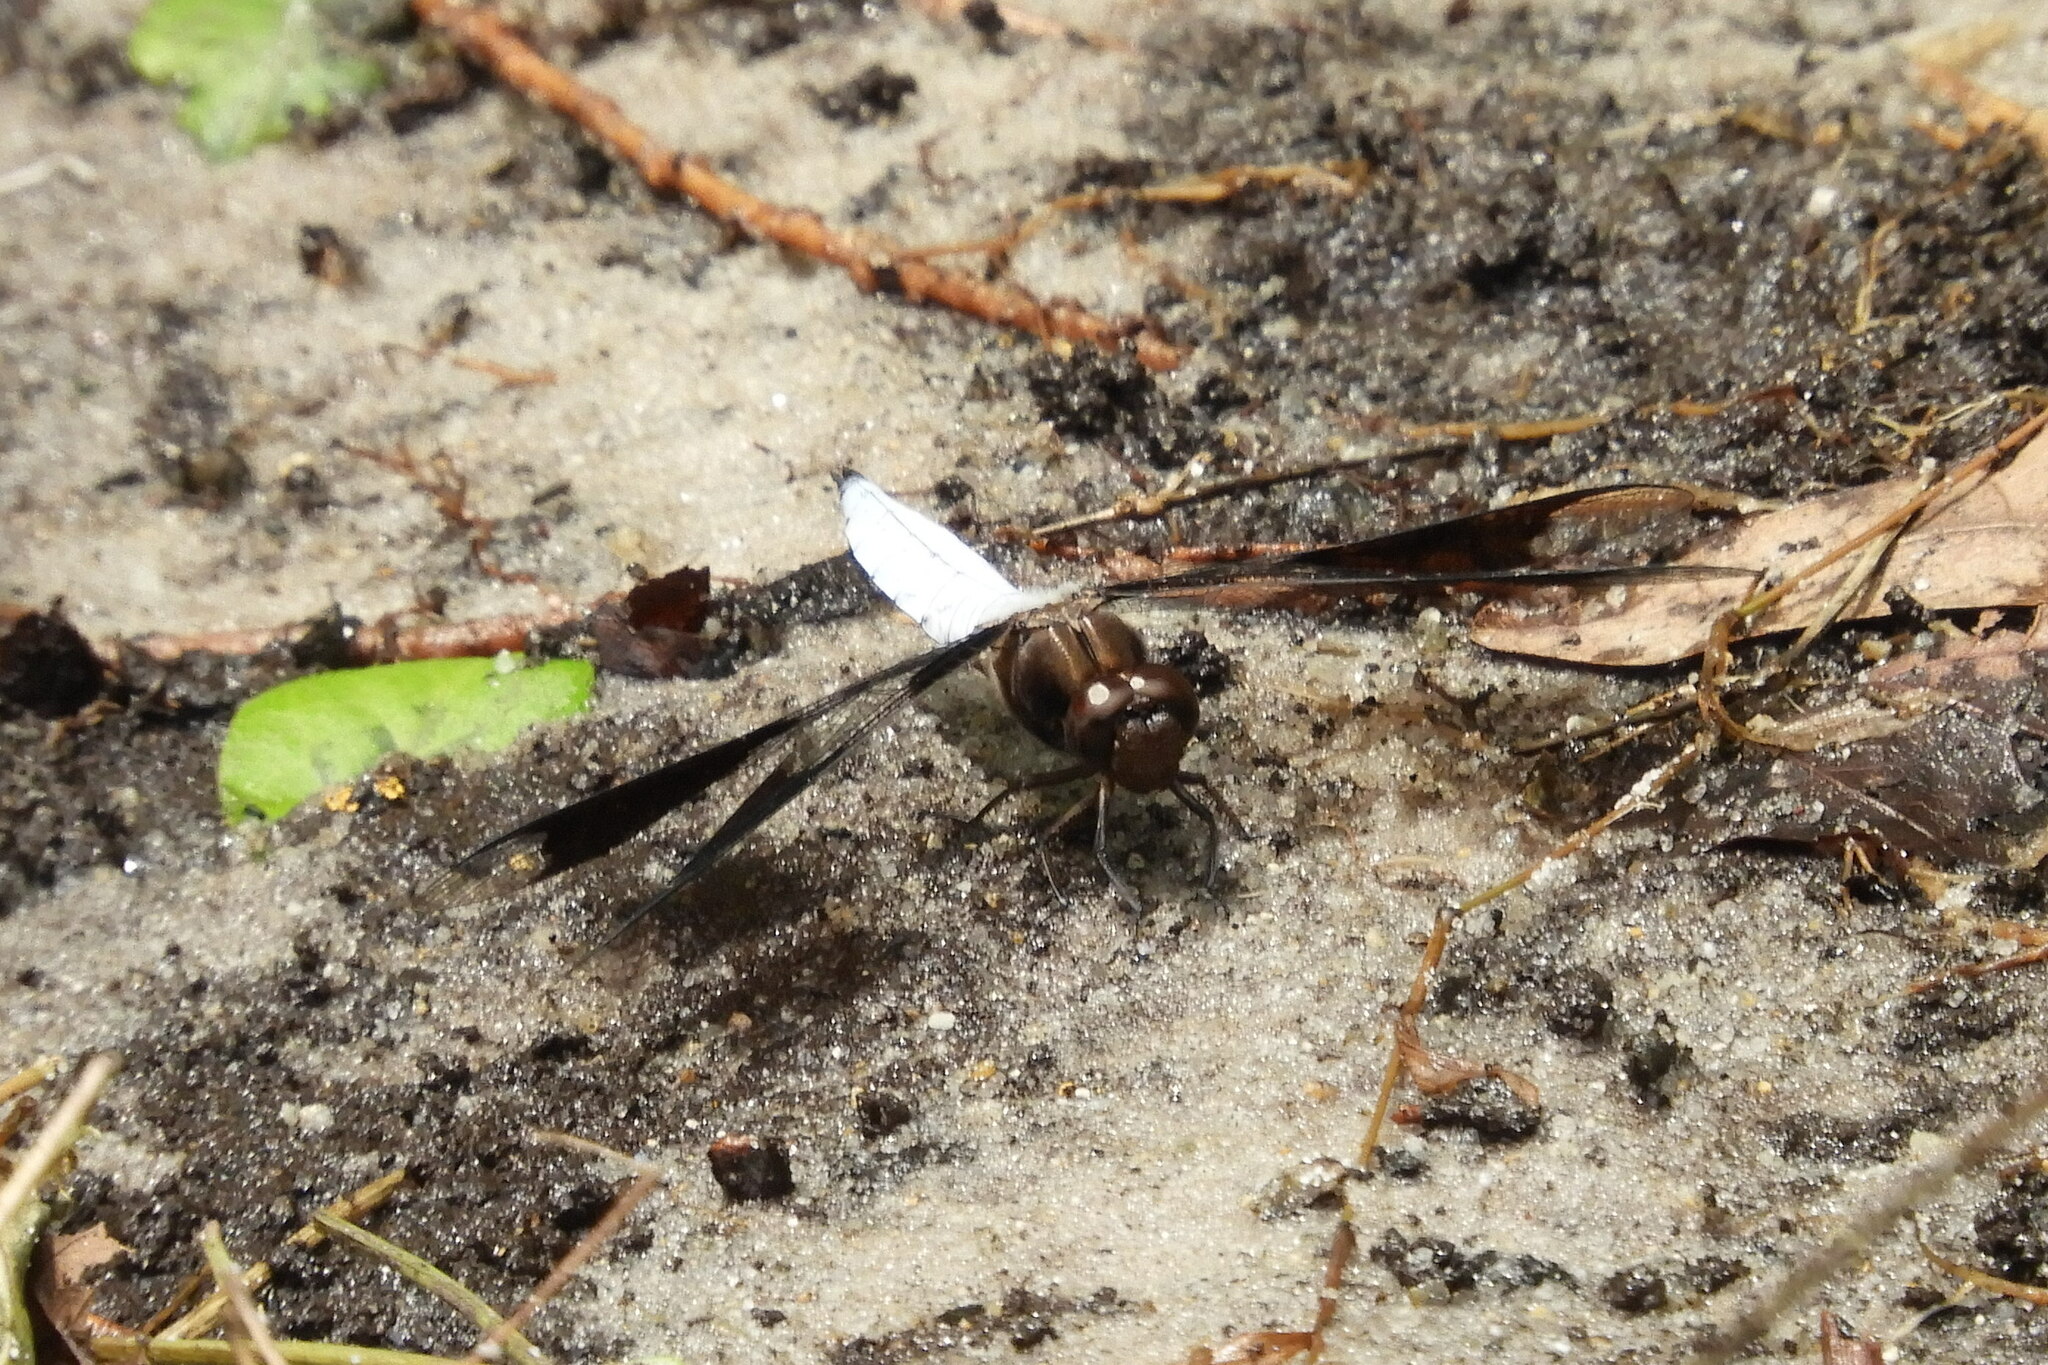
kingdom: Animalia
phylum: Arthropoda
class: Insecta
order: Odonata
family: Libellulidae
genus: Plathemis
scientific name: Plathemis lydia
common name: Common whitetail
